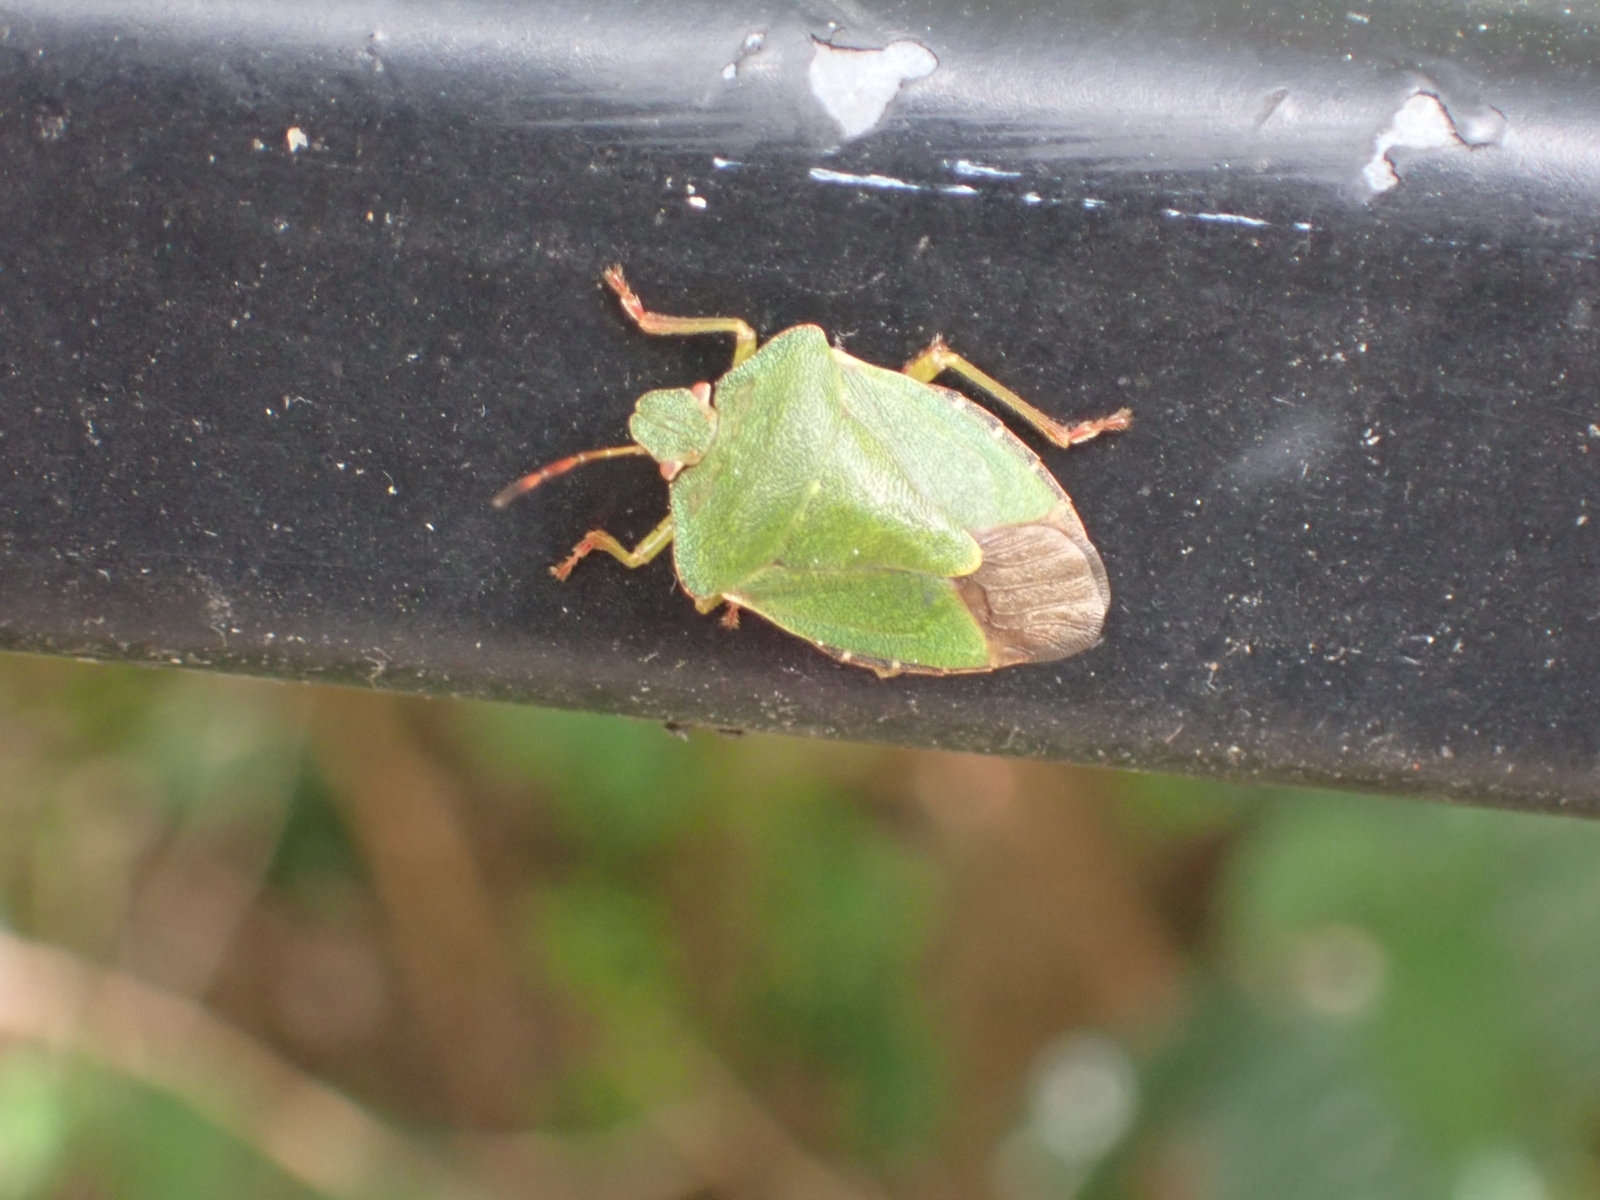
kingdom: Animalia
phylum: Arthropoda
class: Insecta
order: Hemiptera
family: Pentatomidae
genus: Palomena
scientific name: Palomena prasina
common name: Green shieldbug
